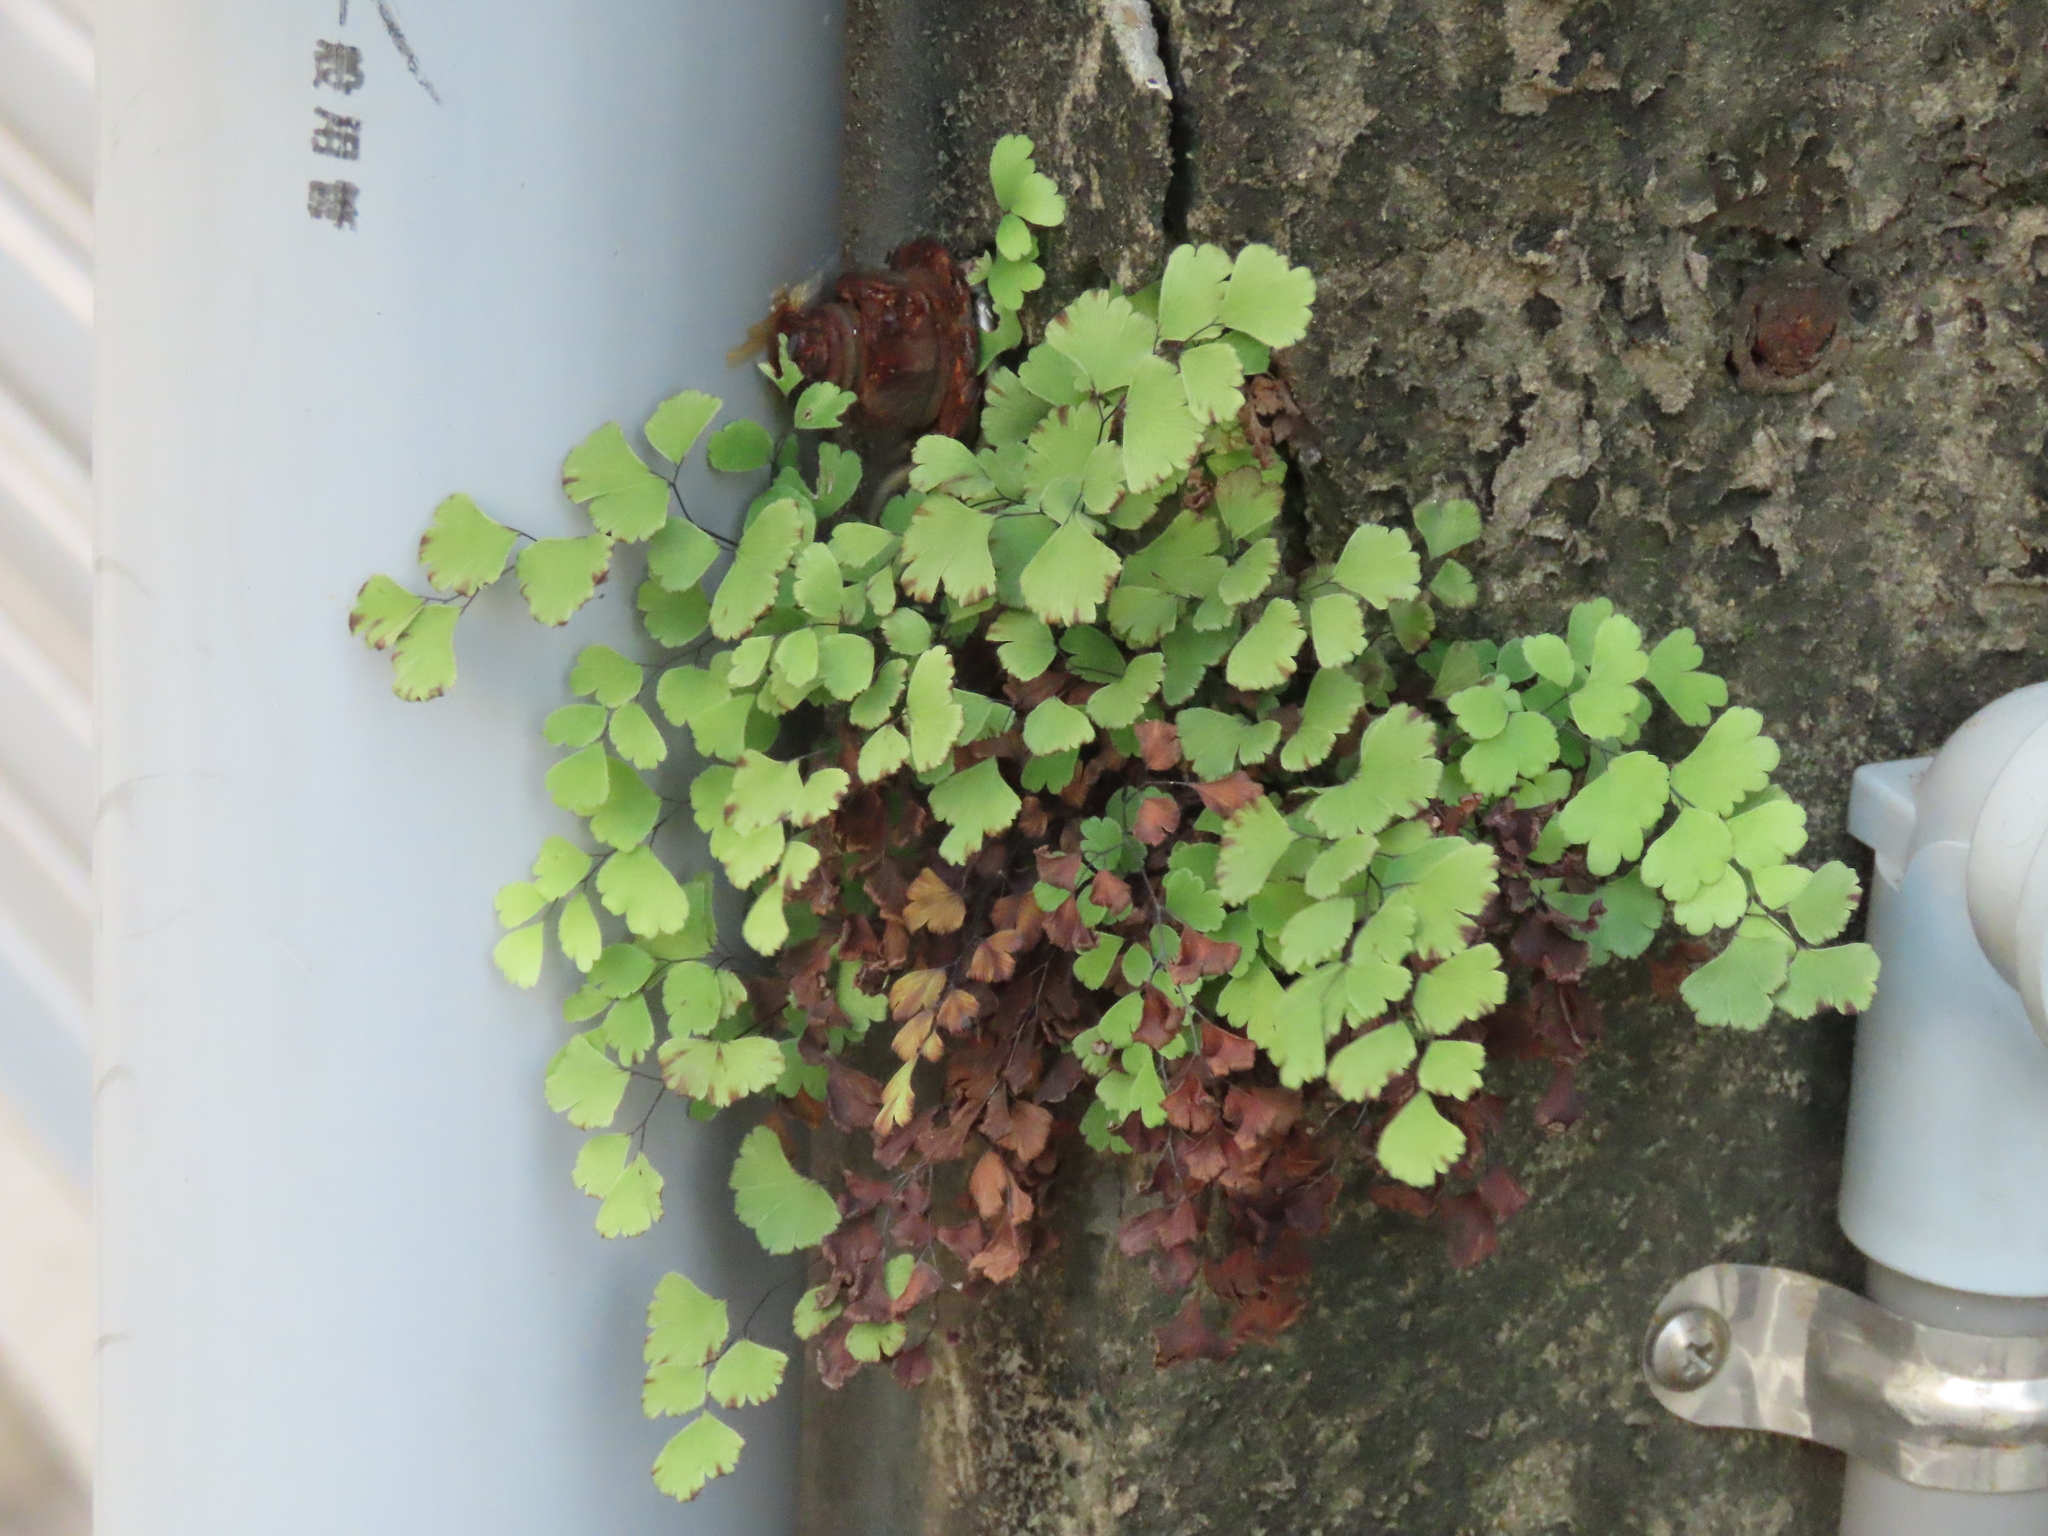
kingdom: Plantae
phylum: Tracheophyta
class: Polypodiopsida
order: Polypodiales
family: Pteridaceae
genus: Adiantum
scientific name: Adiantum capillus-veneris
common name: Maidenhair fern
